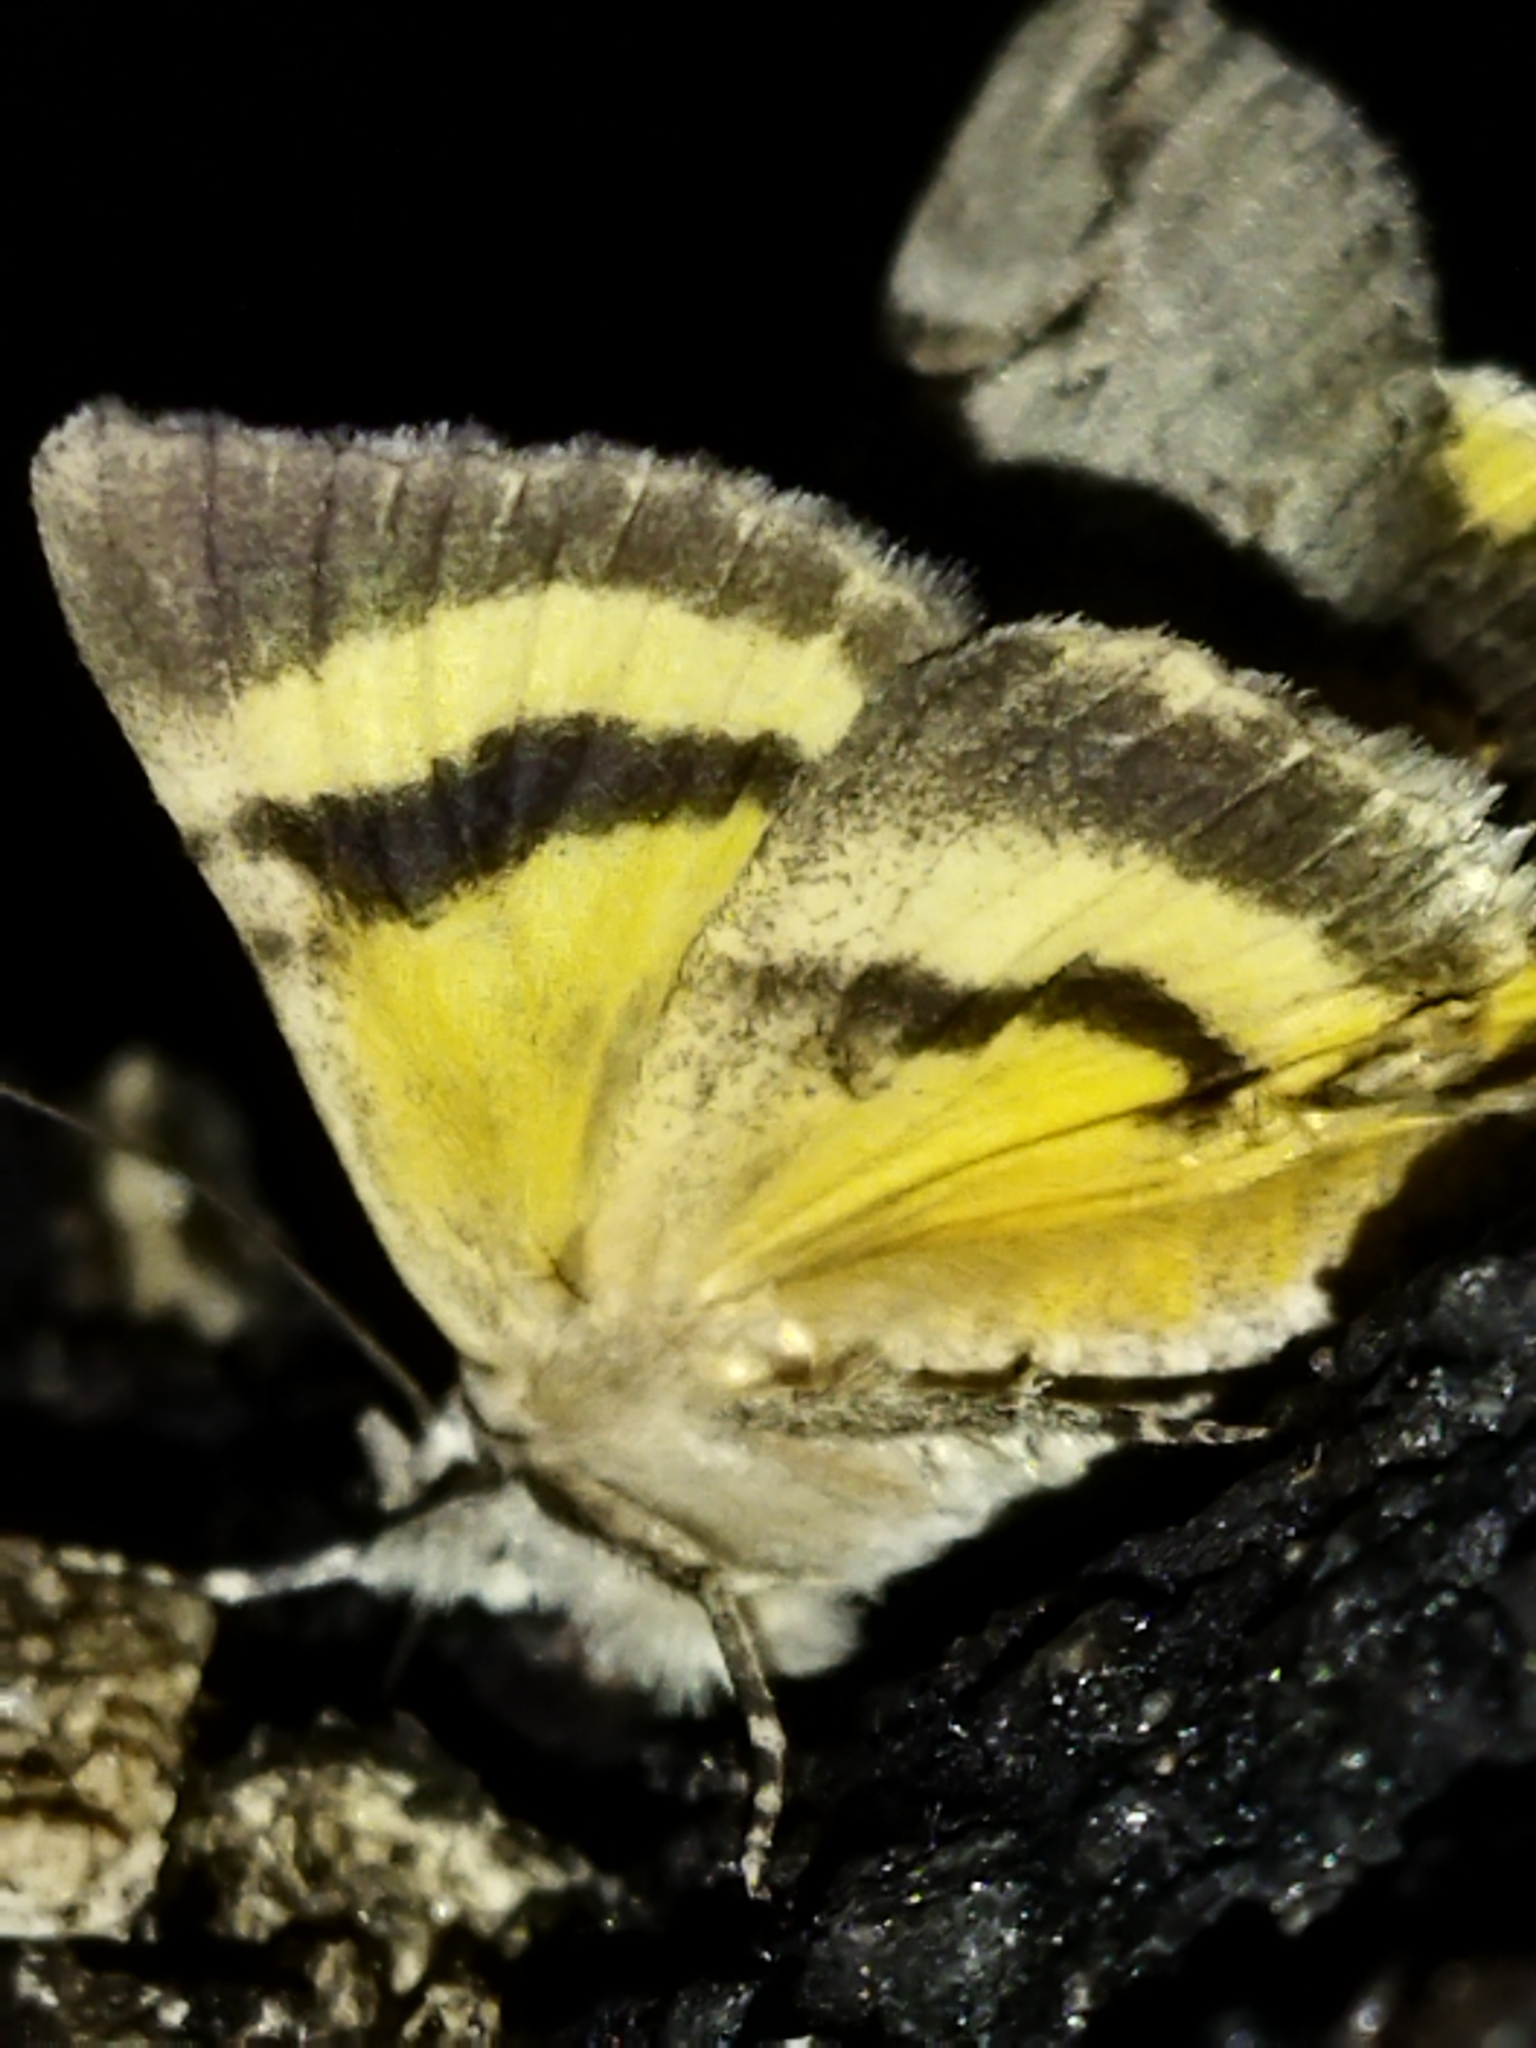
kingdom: Animalia
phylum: Arthropoda
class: Insecta
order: Lepidoptera
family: Erebidae
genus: Catocala
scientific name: Catocala hymenaea
